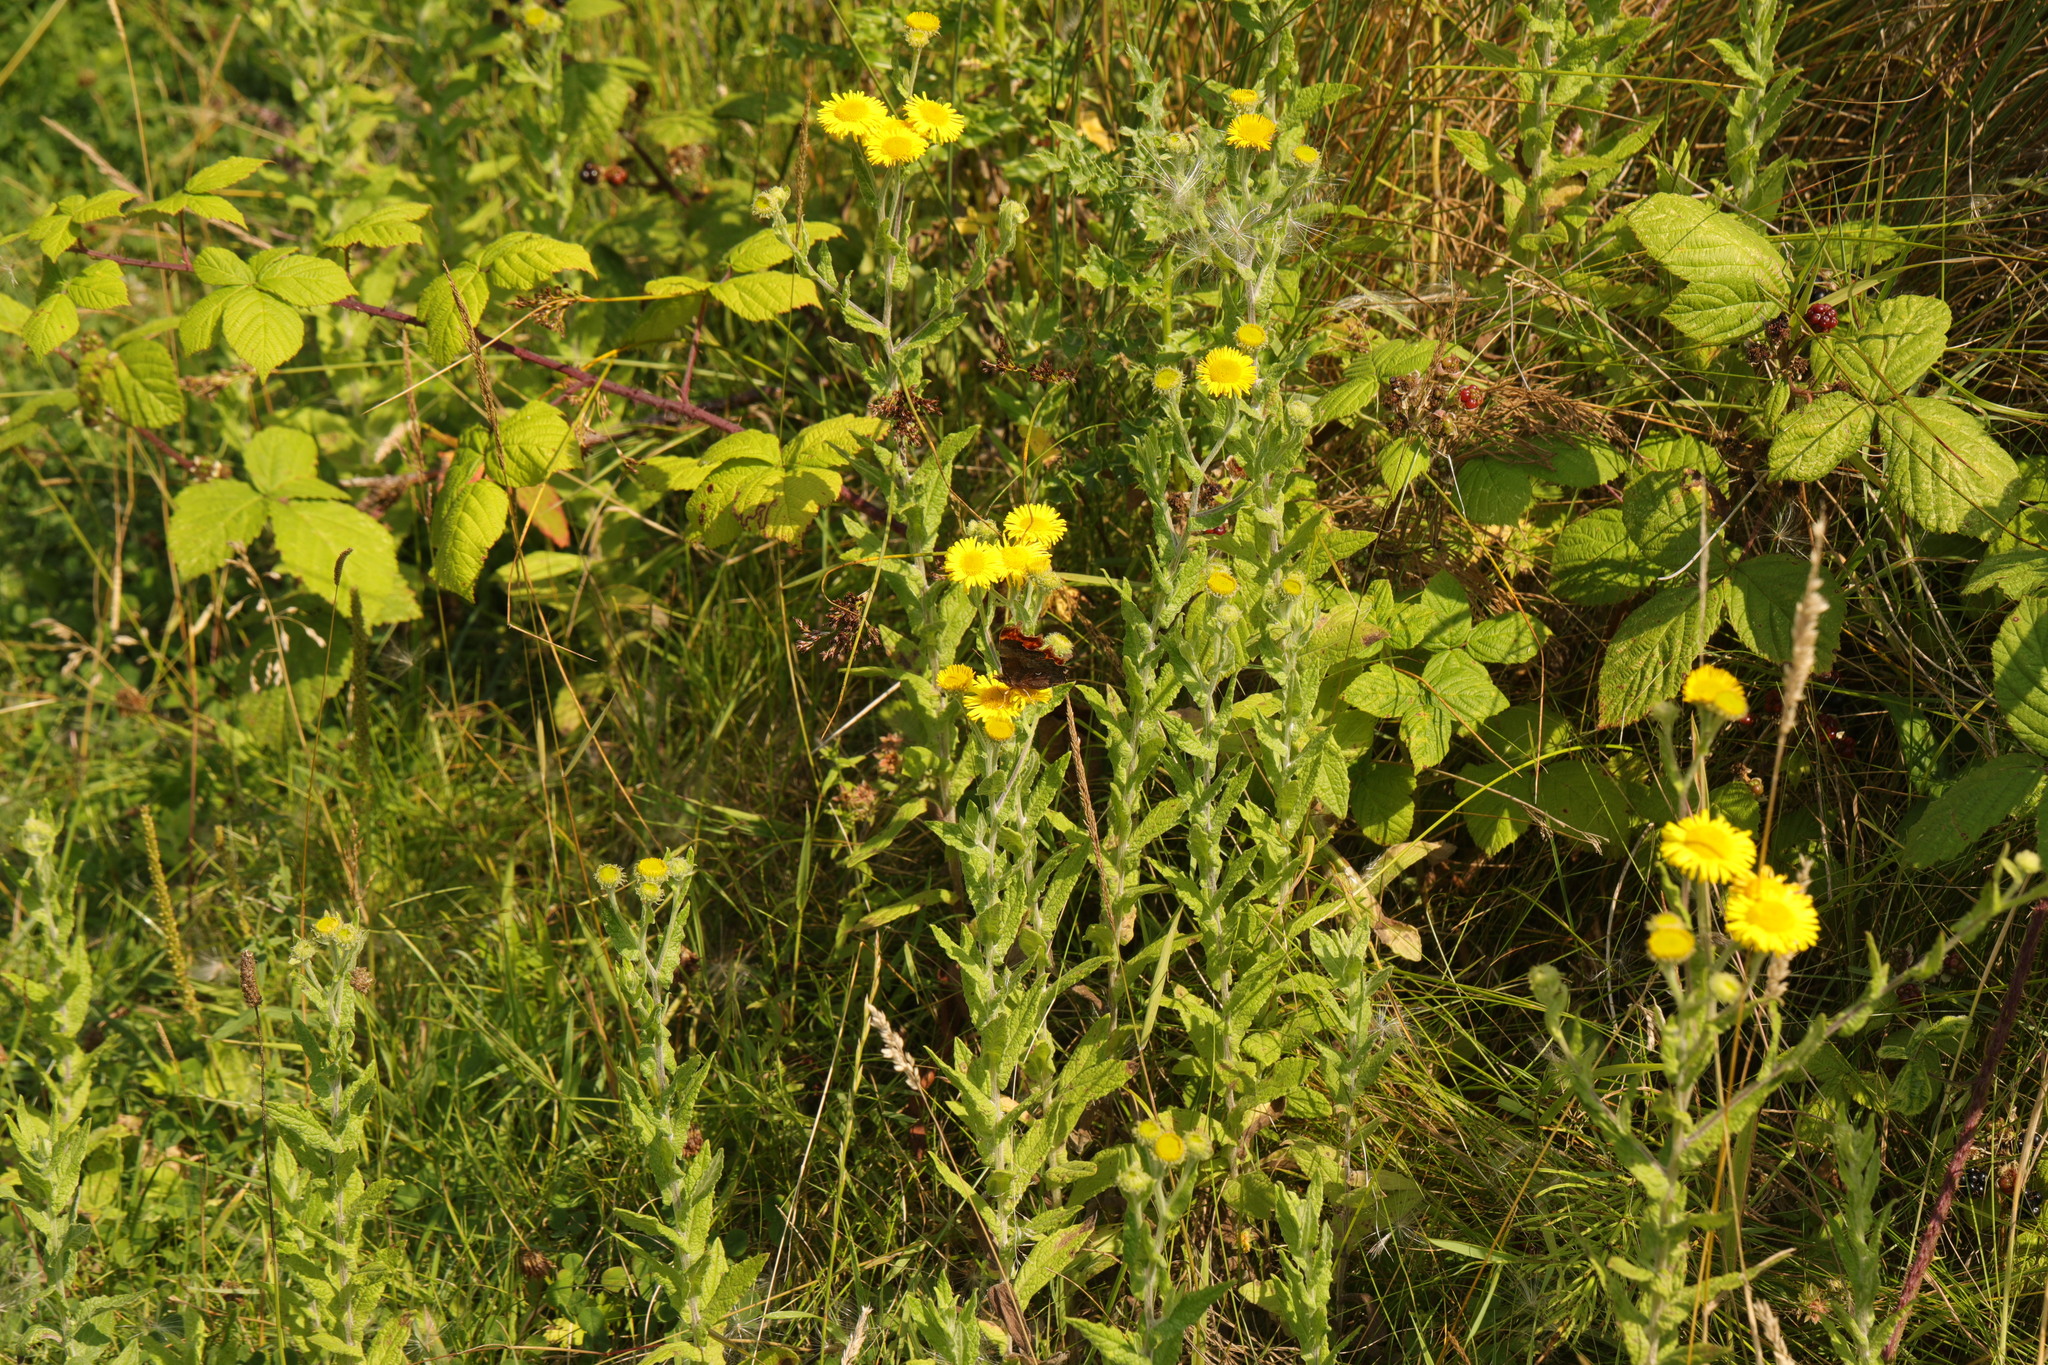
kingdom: Plantae
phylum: Tracheophyta
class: Magnoliopsida
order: Asterales
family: Asteraceae
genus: Pulicaria
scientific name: Pulicaria dysenterica
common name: Common fleabane
